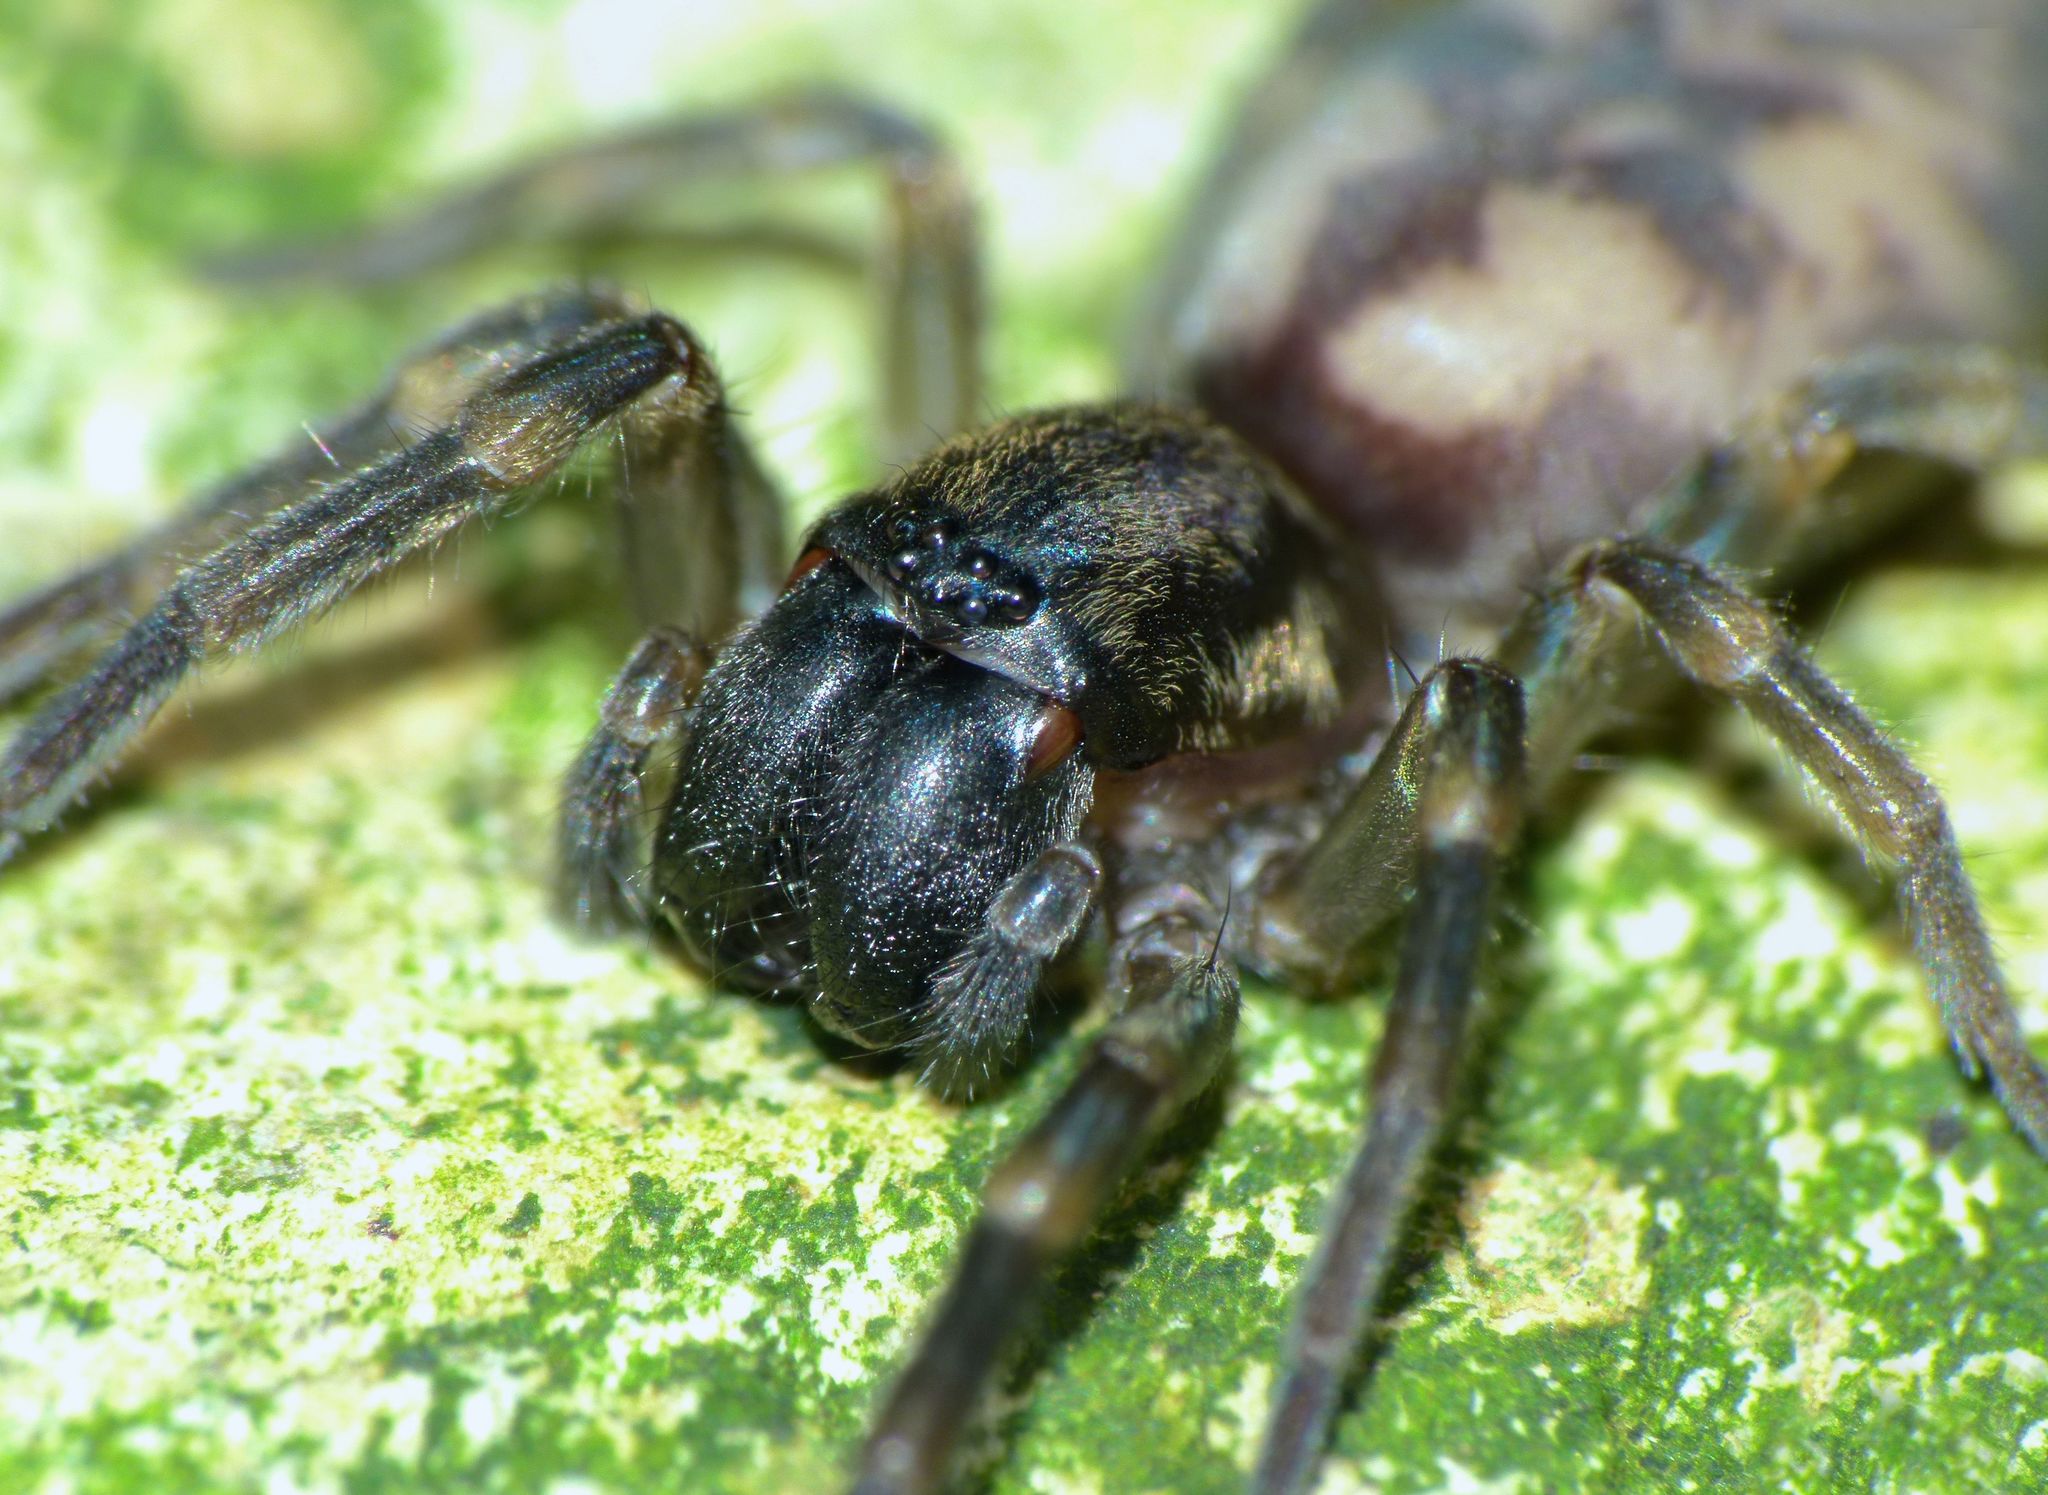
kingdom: Animalia
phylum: Arthropoda
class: Arachnida
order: Araneae
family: Anyphaenidae
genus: Amaurobioides
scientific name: Amaurobioides maritima
